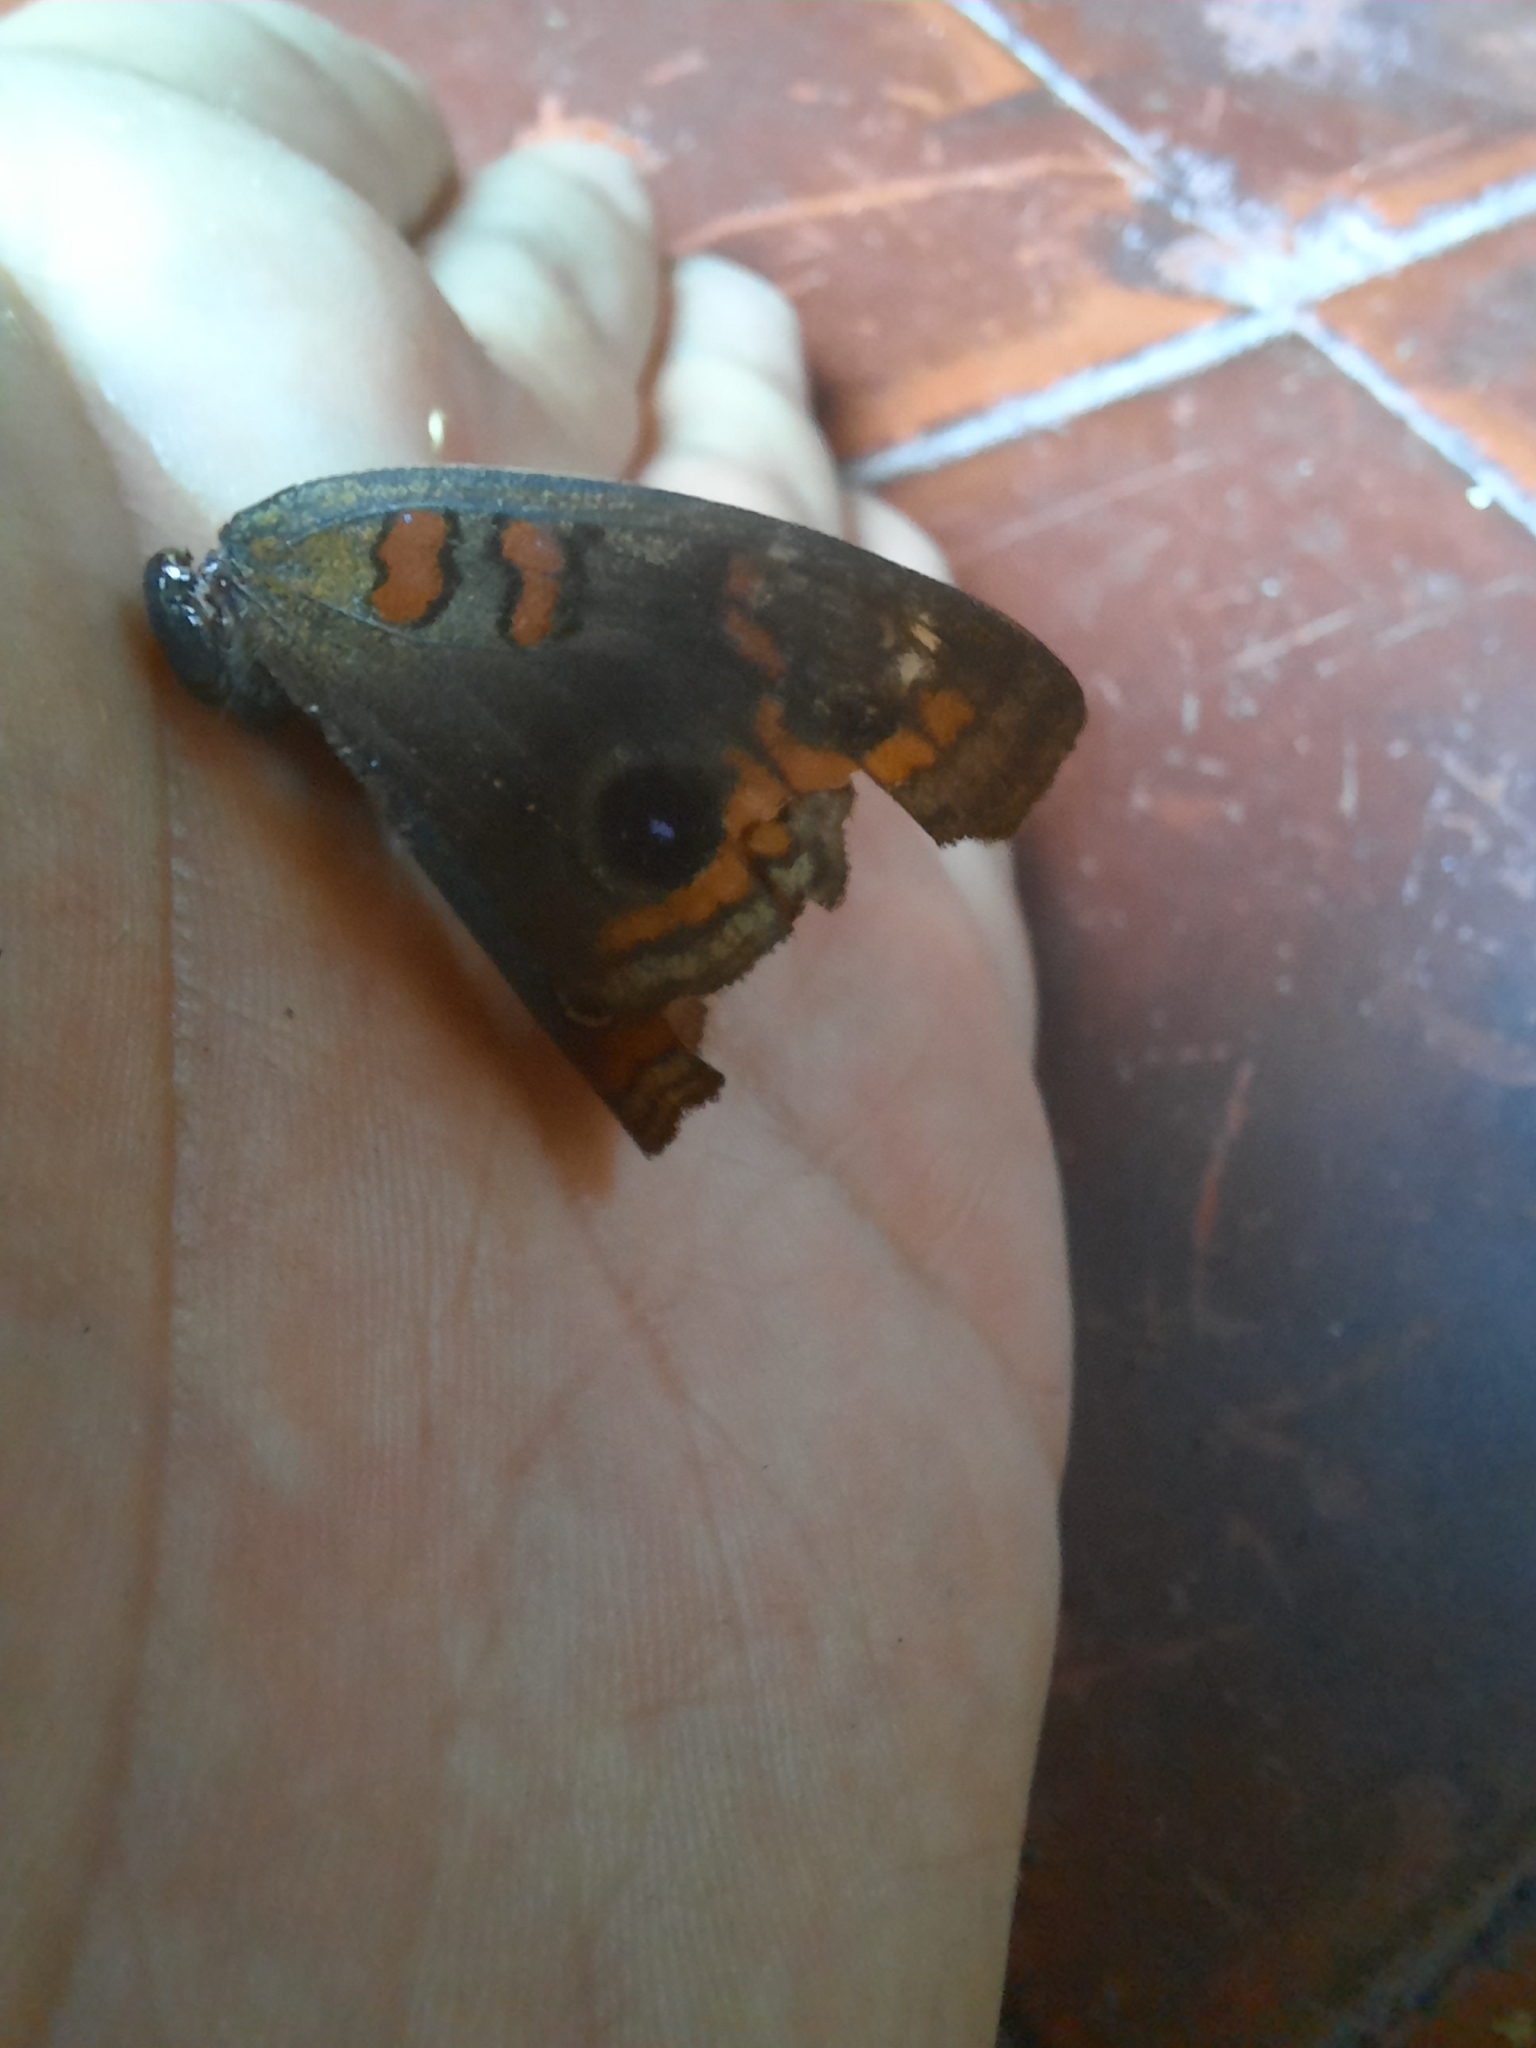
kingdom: Animalia
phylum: Arthropoda
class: Insecta
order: Lepidoptera
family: Nymphalidae
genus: Junonia
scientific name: Junonia lavinia
